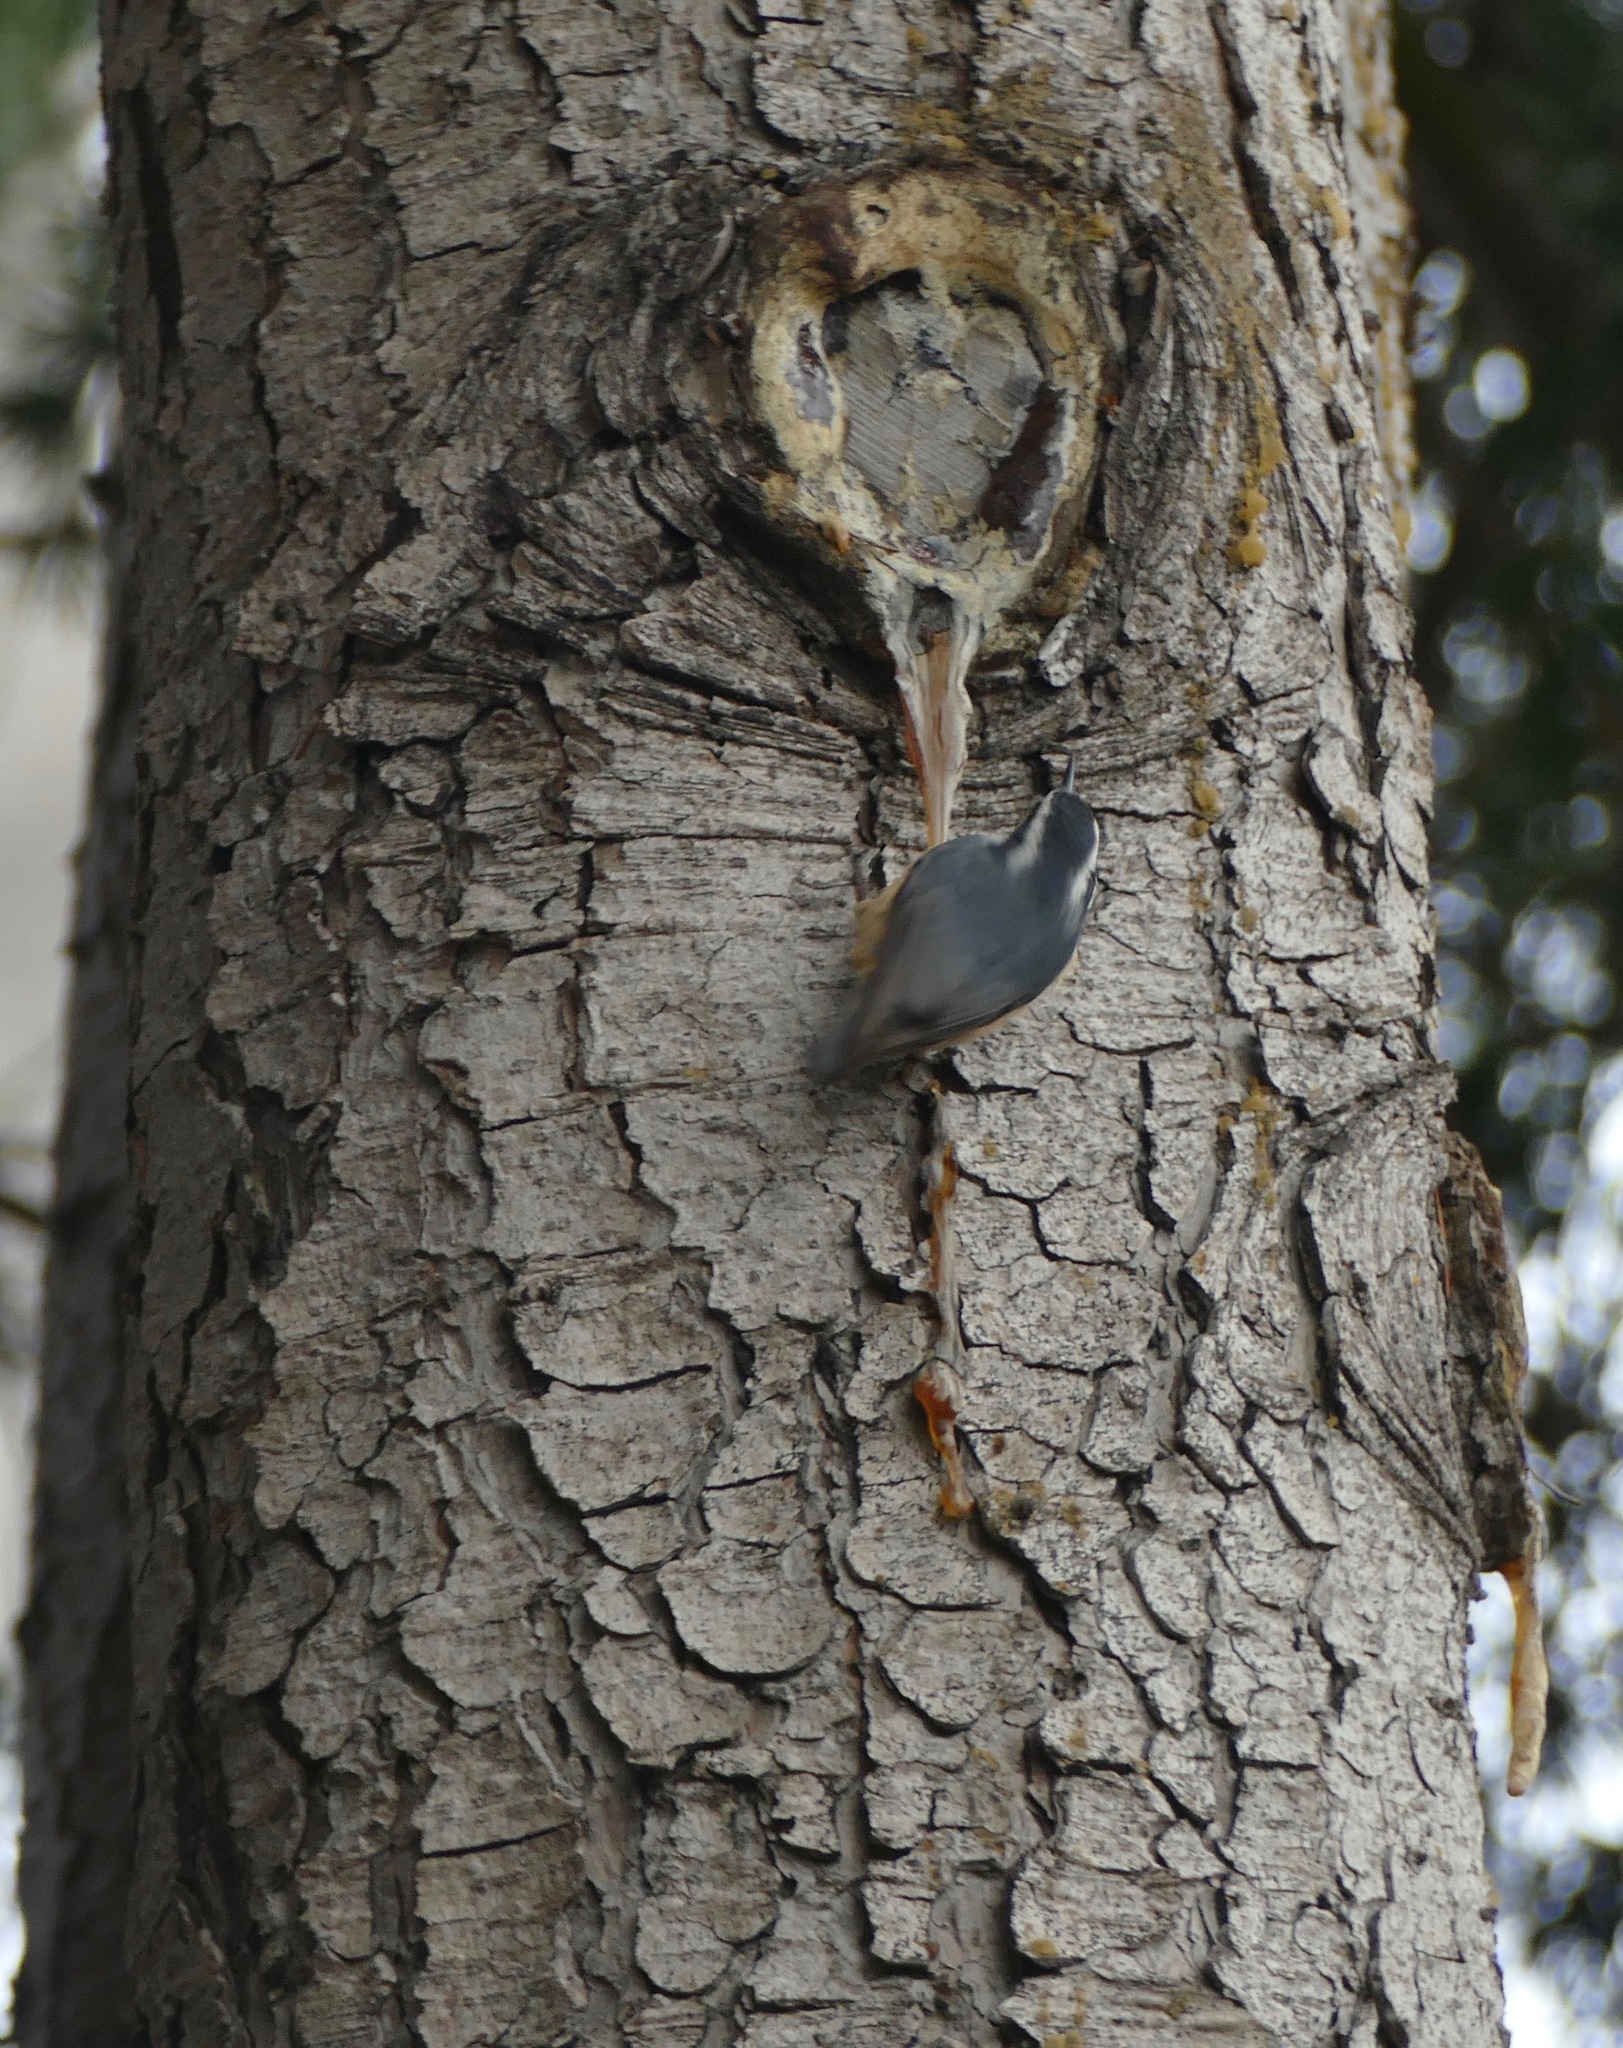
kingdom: Animalia
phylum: Chordata
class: Aves
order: Passeriformes
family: Sittidae
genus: Sitta
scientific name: Sitta canadensis
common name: Red-breasted nuthatch
